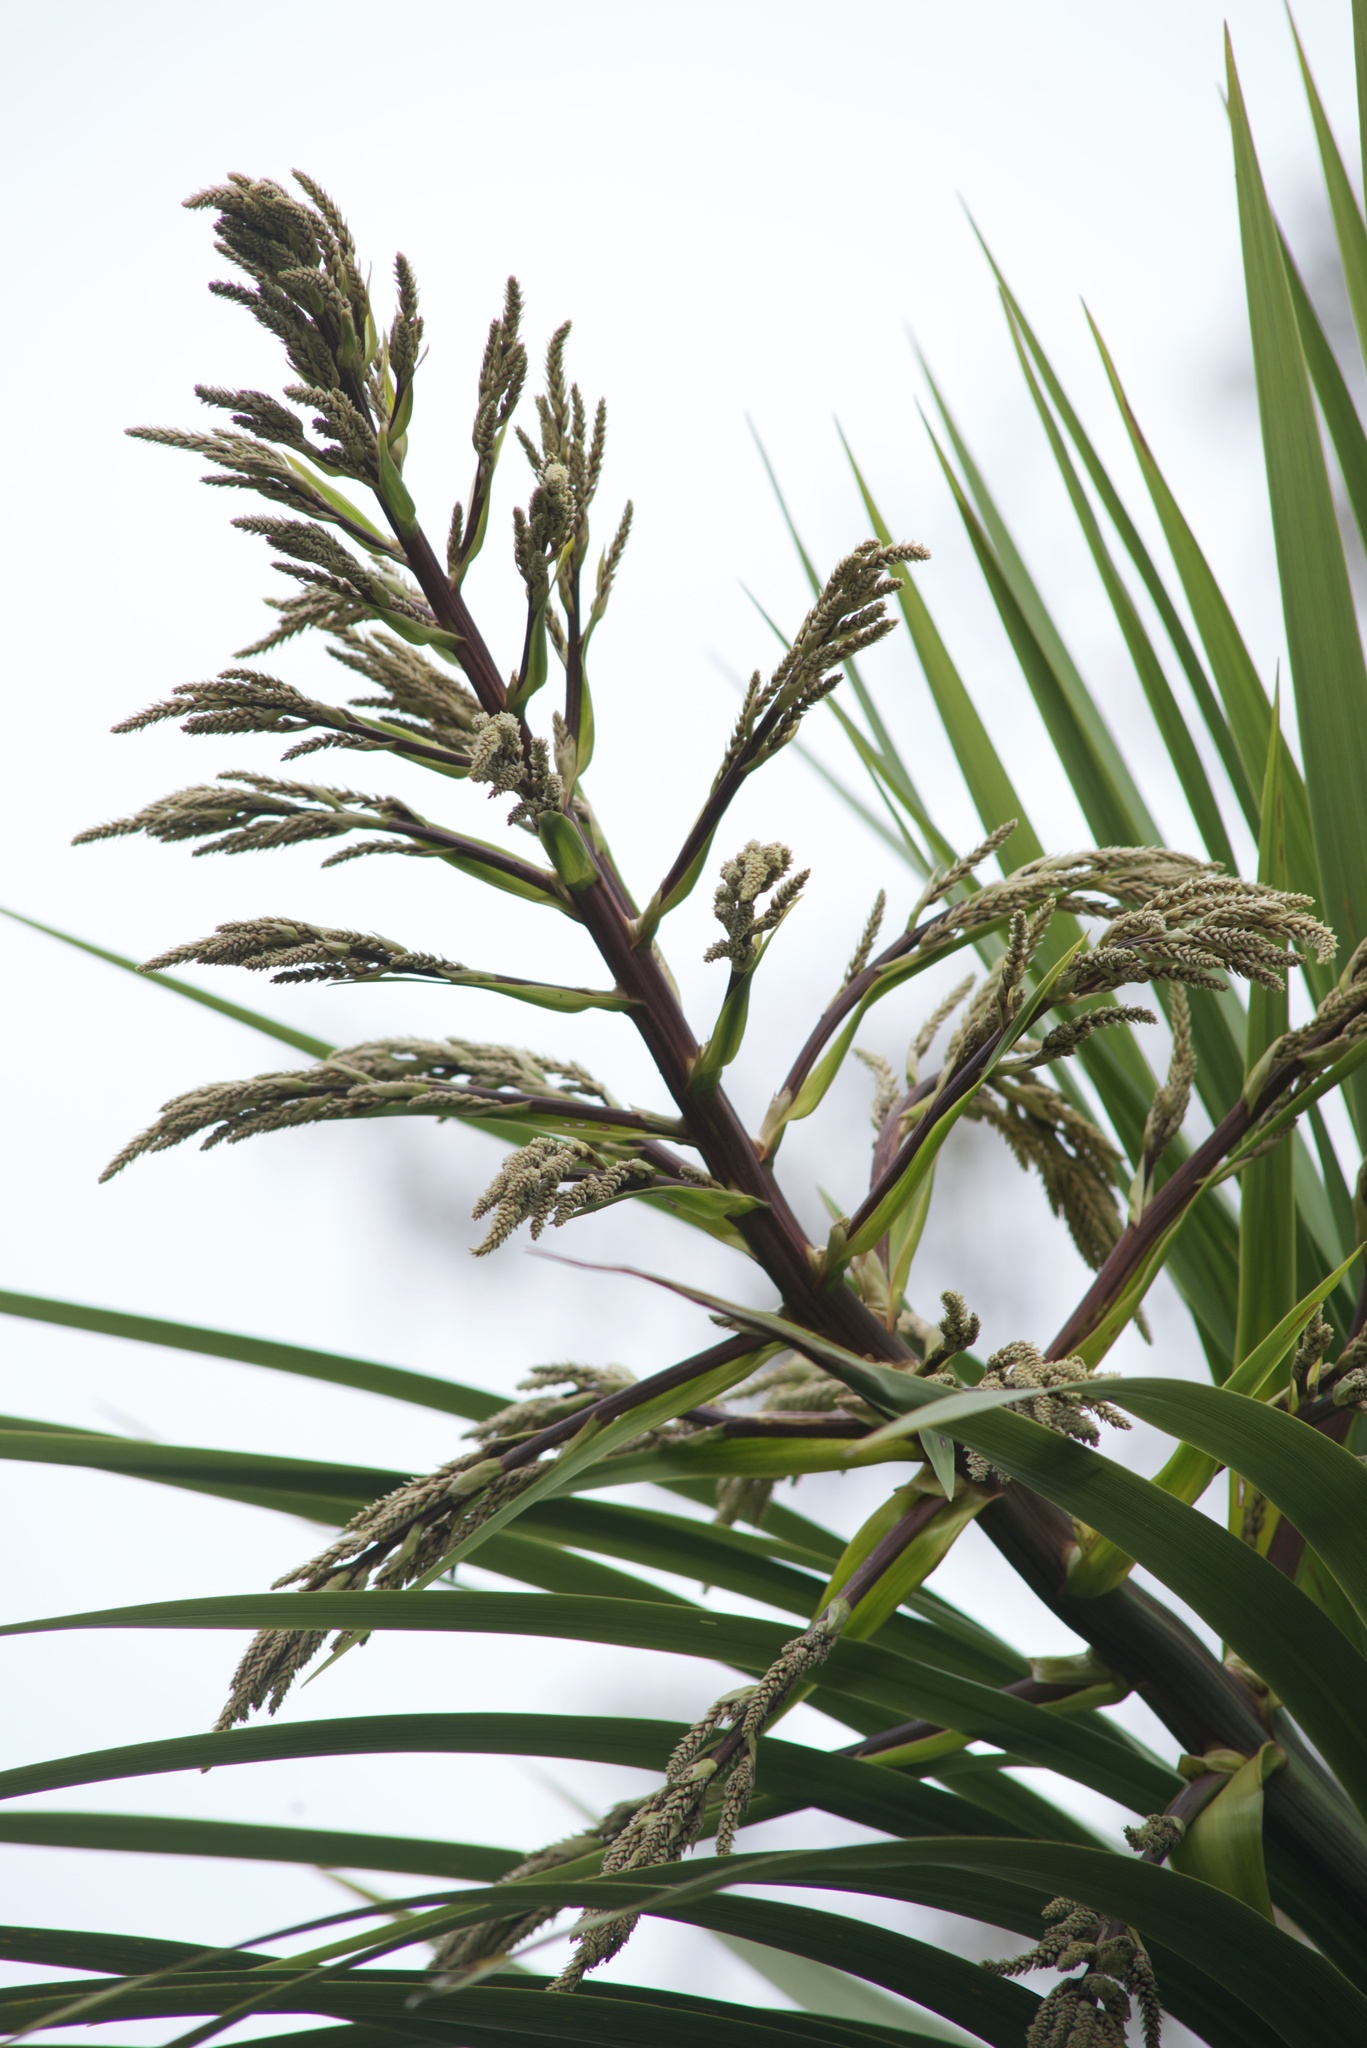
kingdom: Plantae
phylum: Tracheophyta
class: Liliopsida
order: Asparagales
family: Asparagaceae
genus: Cordyline
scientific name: Cordyline australis
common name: Cabbage-palm
